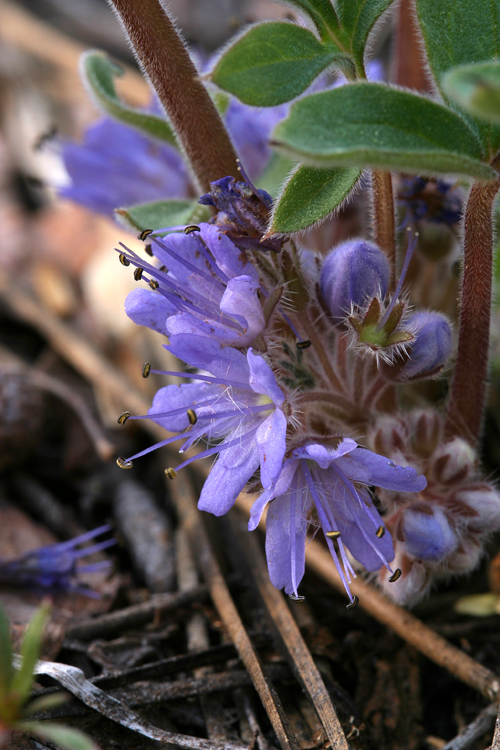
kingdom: Plantae
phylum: Tracheophyta
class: Magnoliopsida
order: Boraginales
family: Hydrophyllaceae
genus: Hydrophyllum
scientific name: Hydrophyllum alpestre
